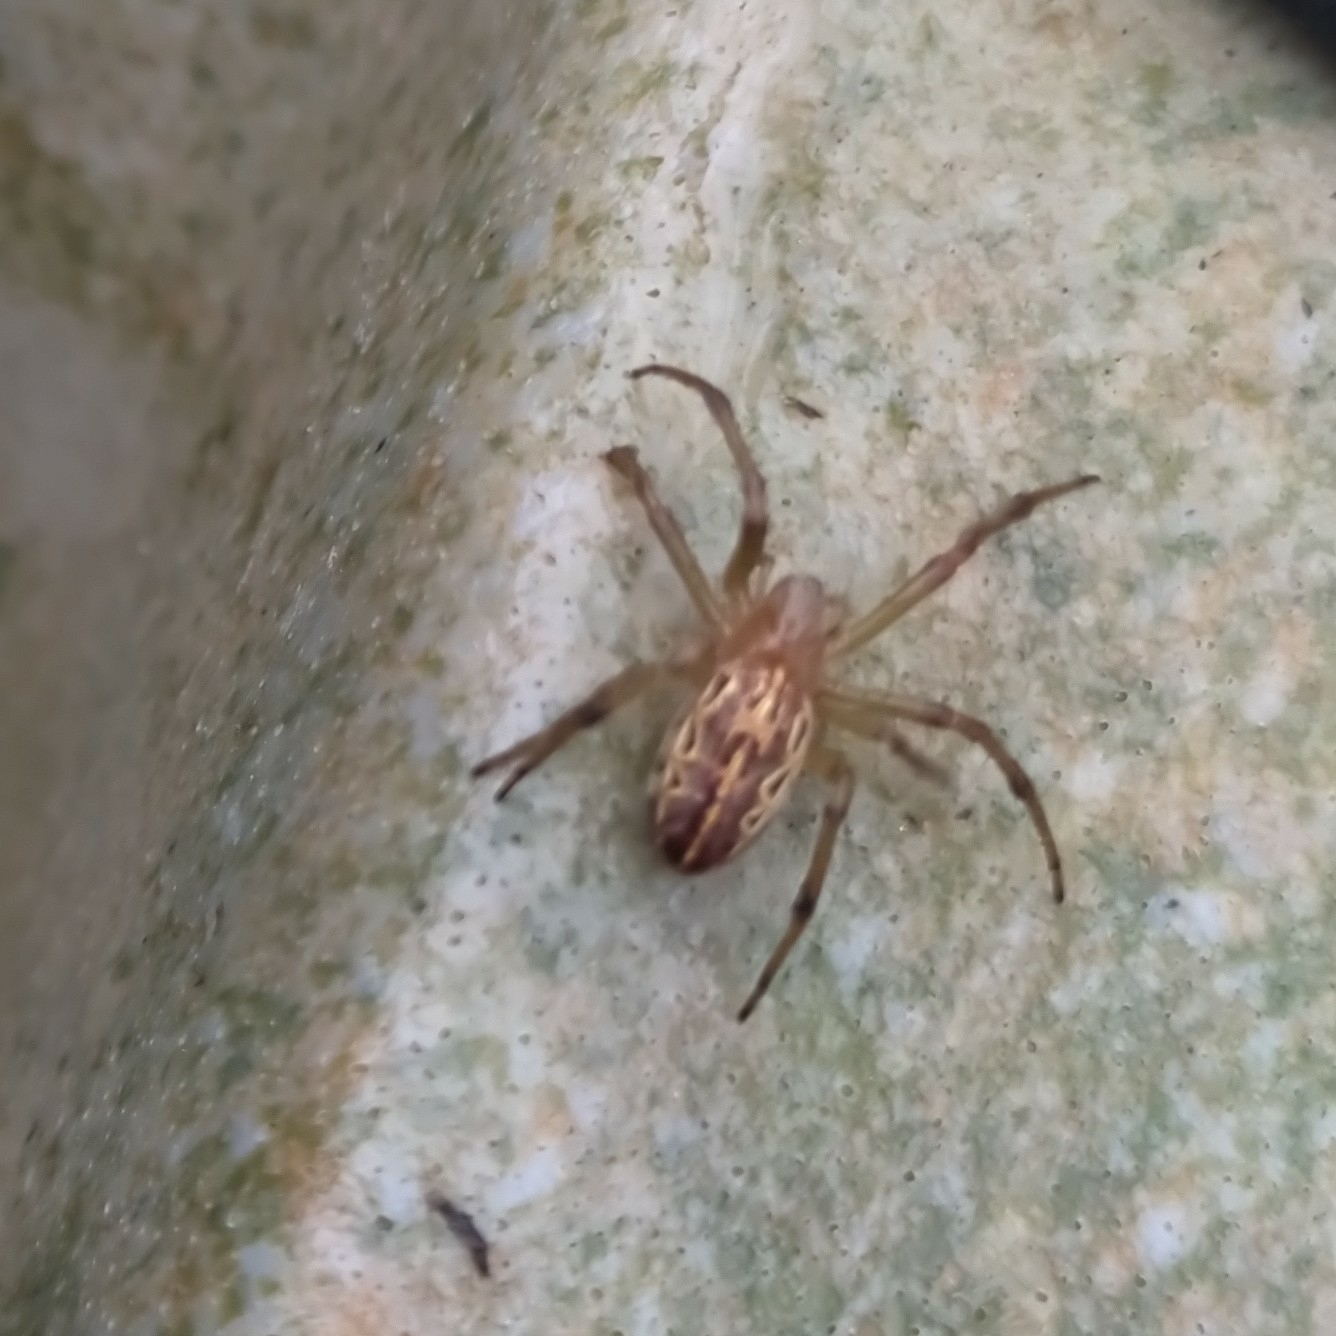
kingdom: Animalia
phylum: Arthropoda
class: Arachnida
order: Araneae
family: Araneidae
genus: Alpaida
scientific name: Alpaida veniliae
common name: Orb weavers
